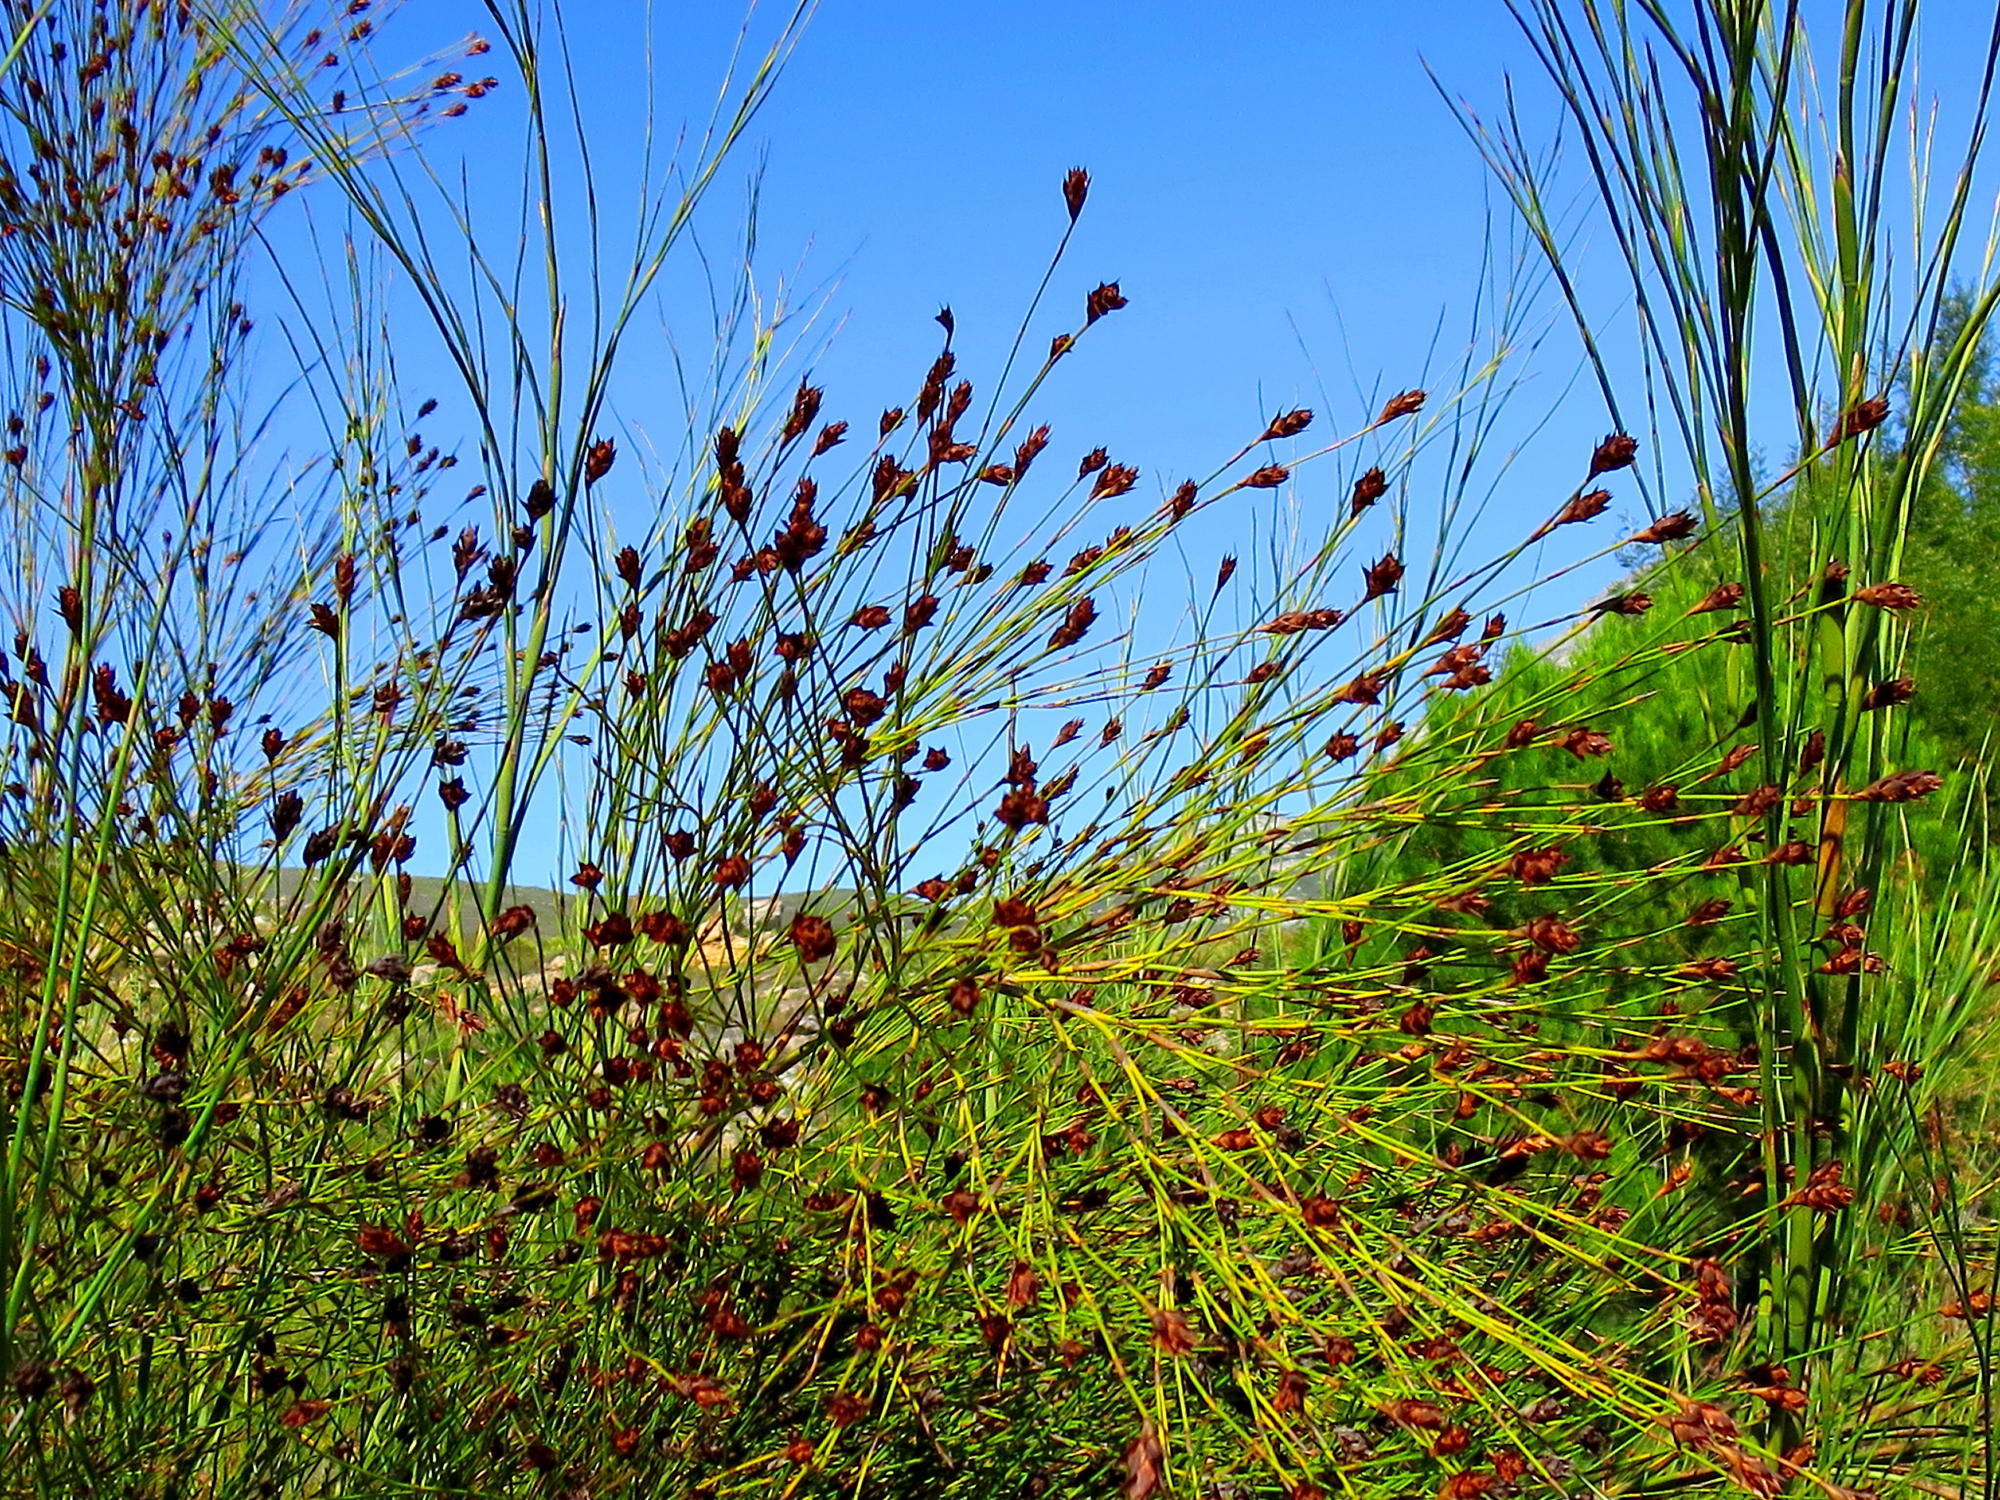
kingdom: Plantae
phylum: Tracheophyta
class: Liliopsida
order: Poales
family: Restionaceae
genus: Platycaulos
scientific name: Platycaulos callistachyus
